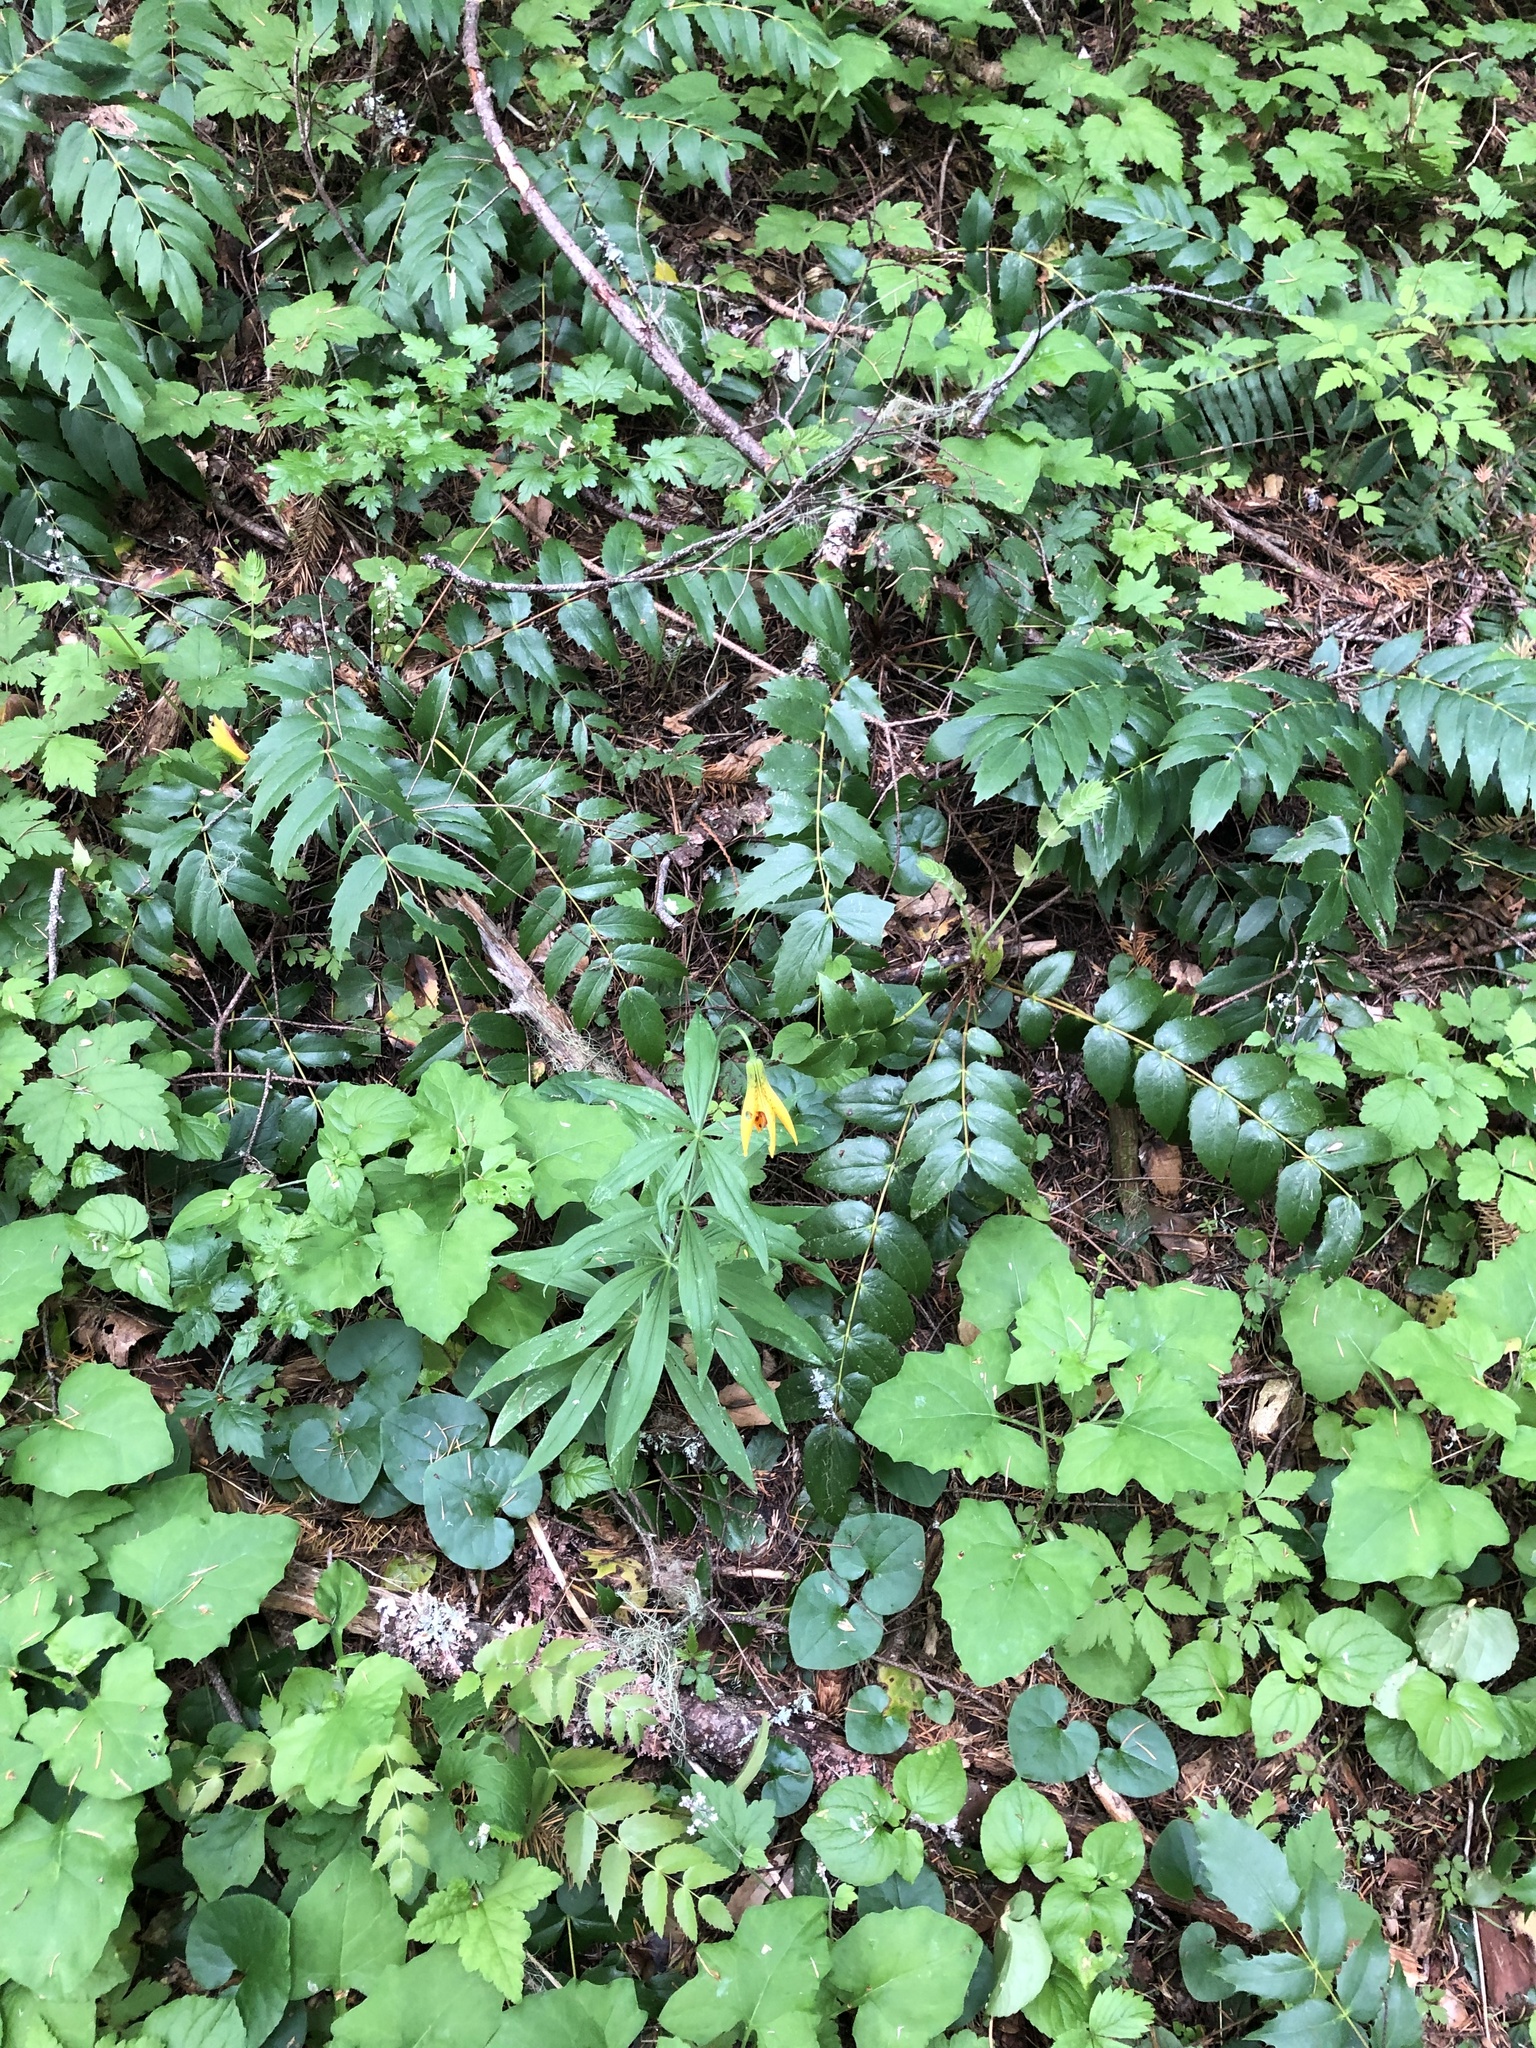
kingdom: Plantae
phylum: Tracheophyta
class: Liliopsida
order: Liliales
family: Liliaceae
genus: Lilium
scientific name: Lilium columbianum
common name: Columbia lily
